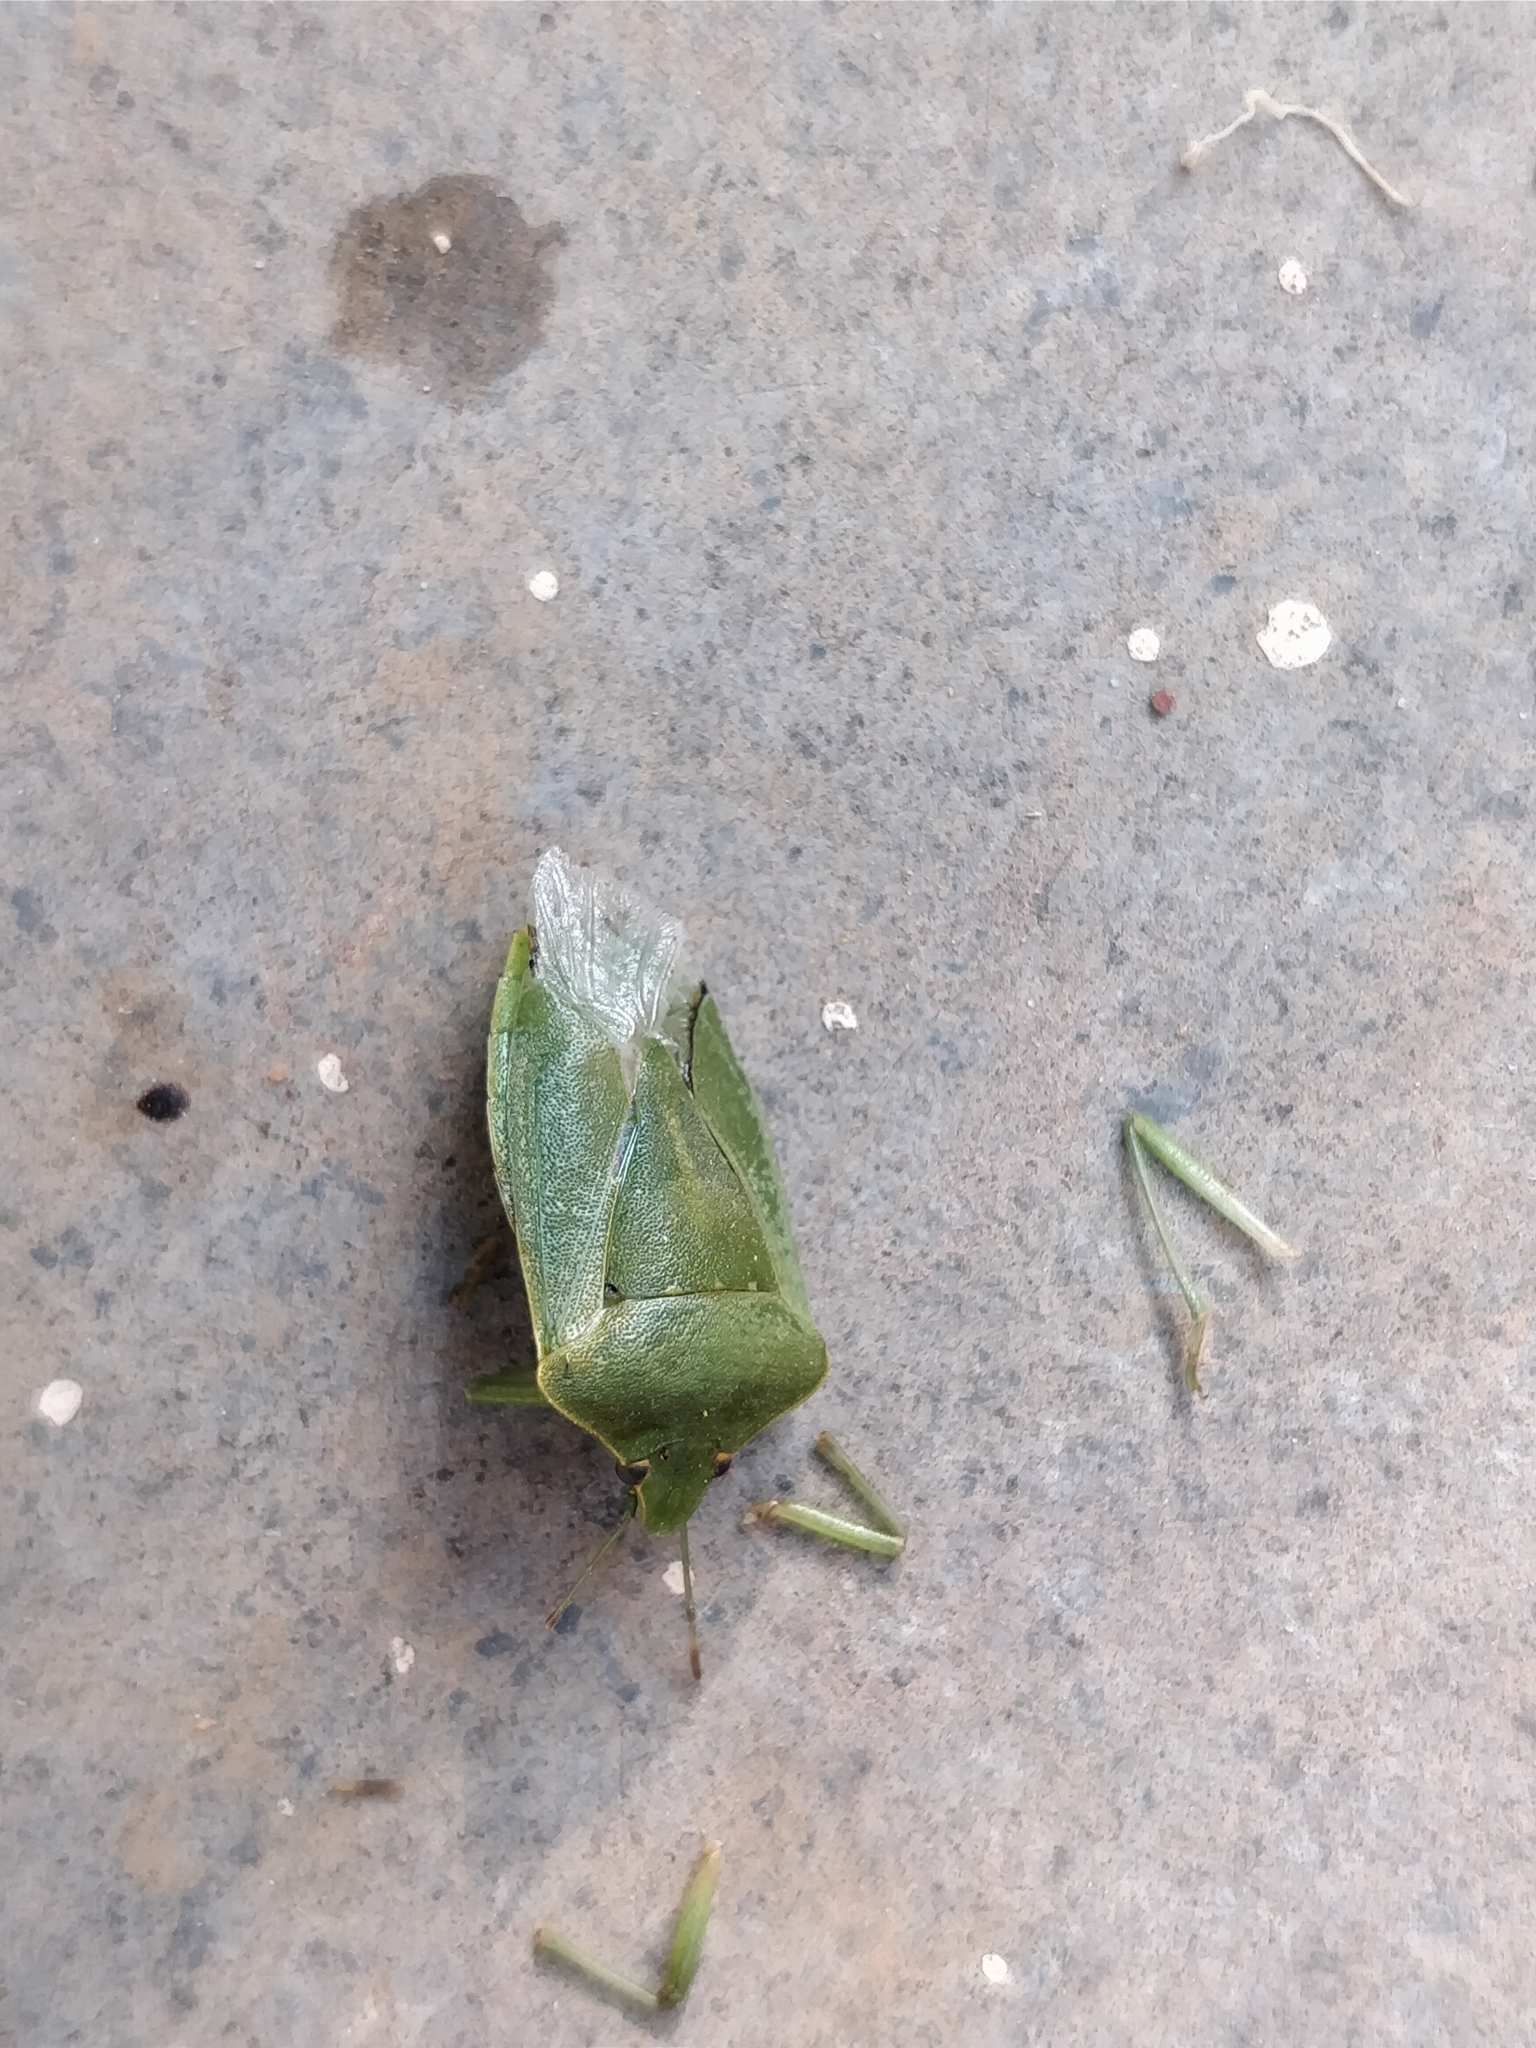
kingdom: Animalia
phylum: Arthropoda
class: Insecta
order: Hemiptera
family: Pentatomidae
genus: Nezara
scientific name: Nezara viridula
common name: Southern green stink bug
